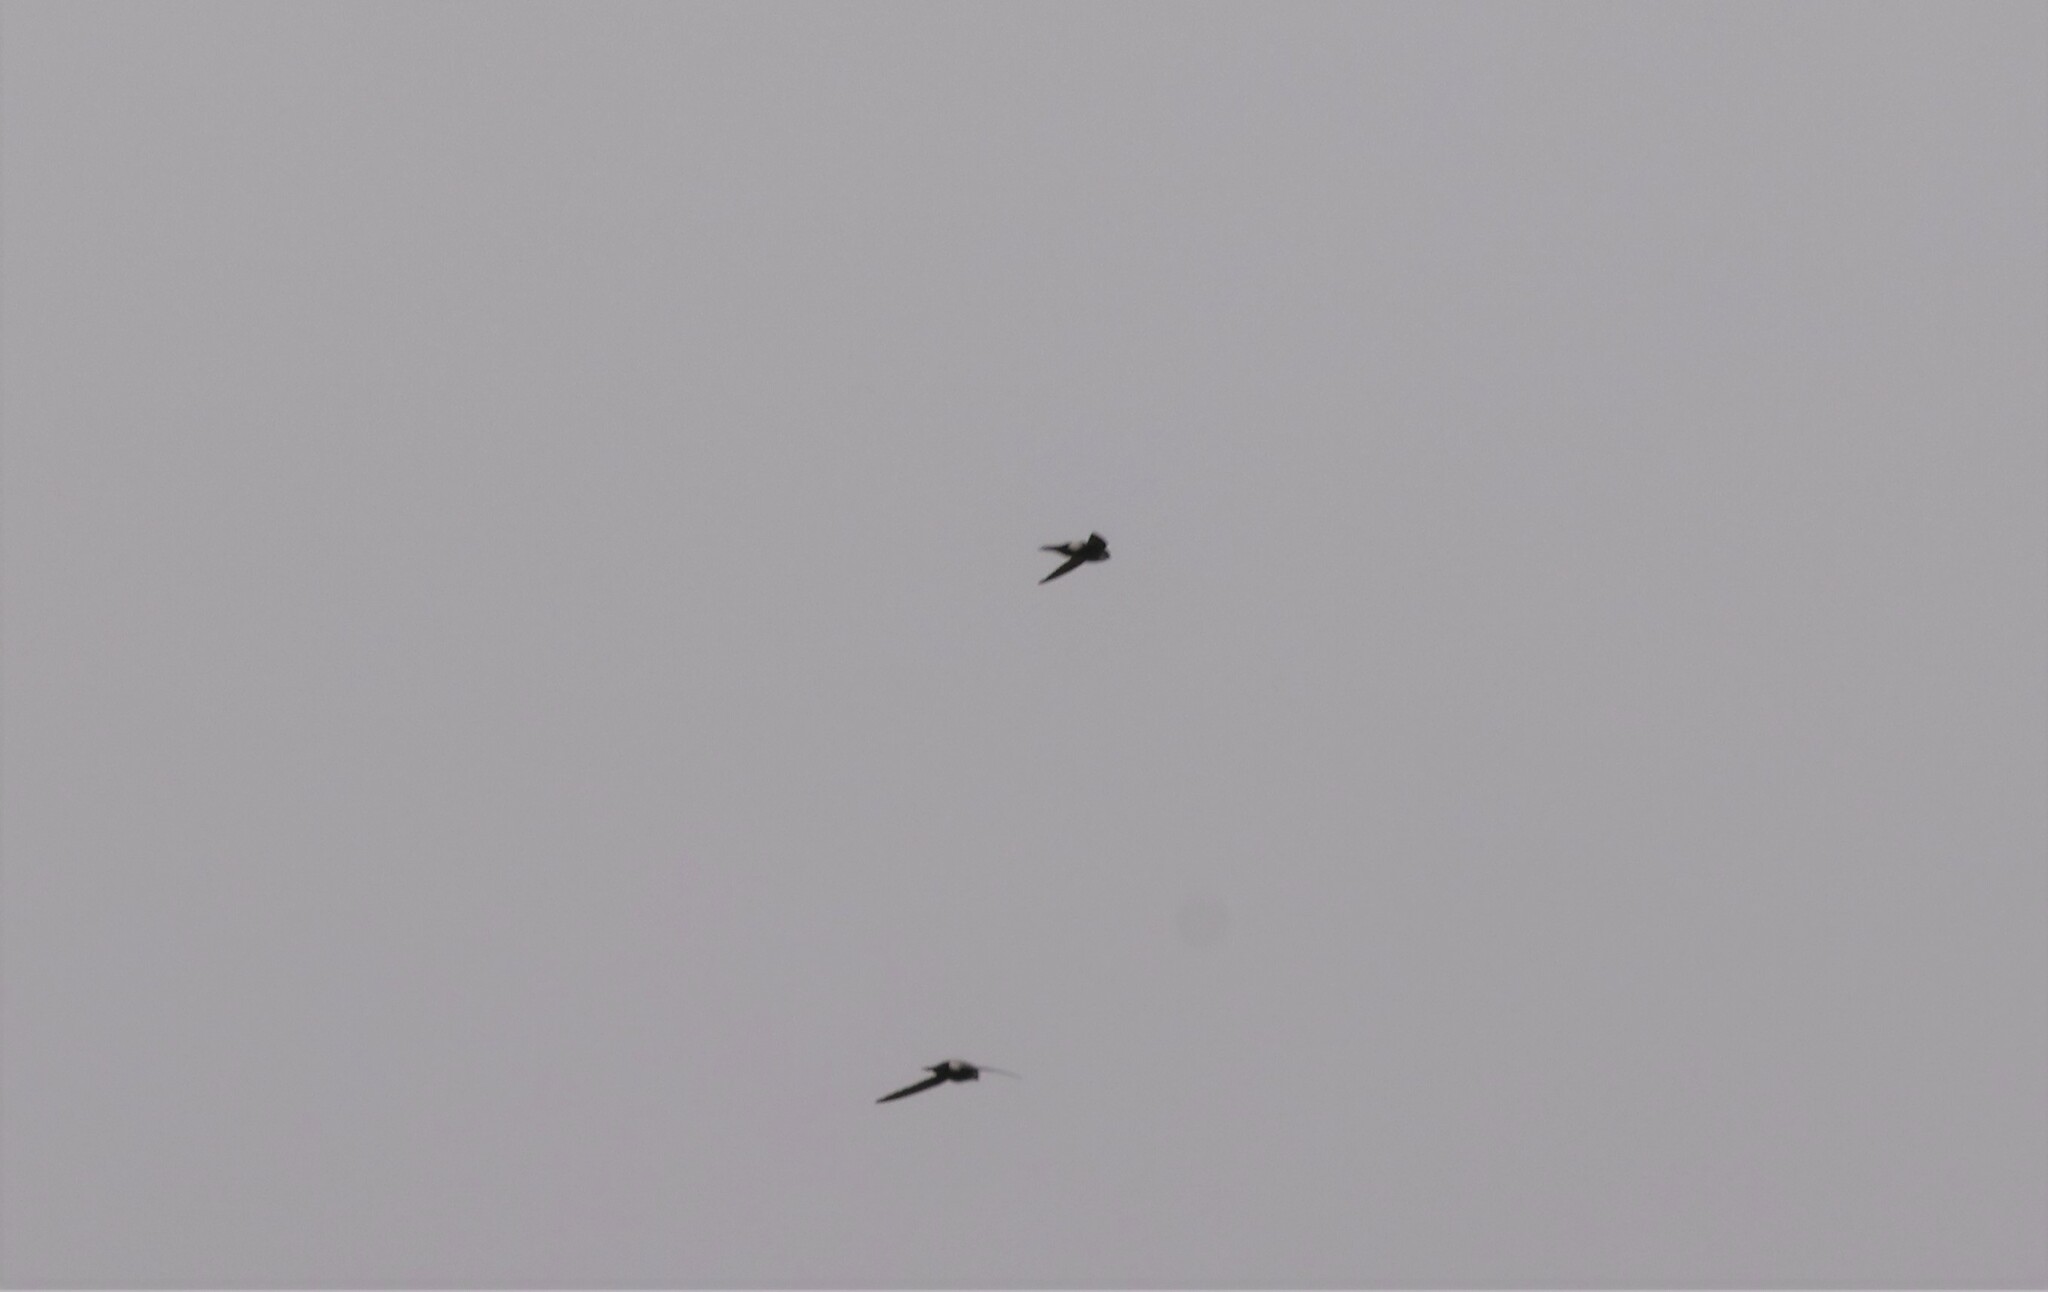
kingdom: Animalia
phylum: Chordata
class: Aves
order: Apodiformes
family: Apodidae
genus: Aeronautes
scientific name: Aeronautes saxatalis
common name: White-throated swift
